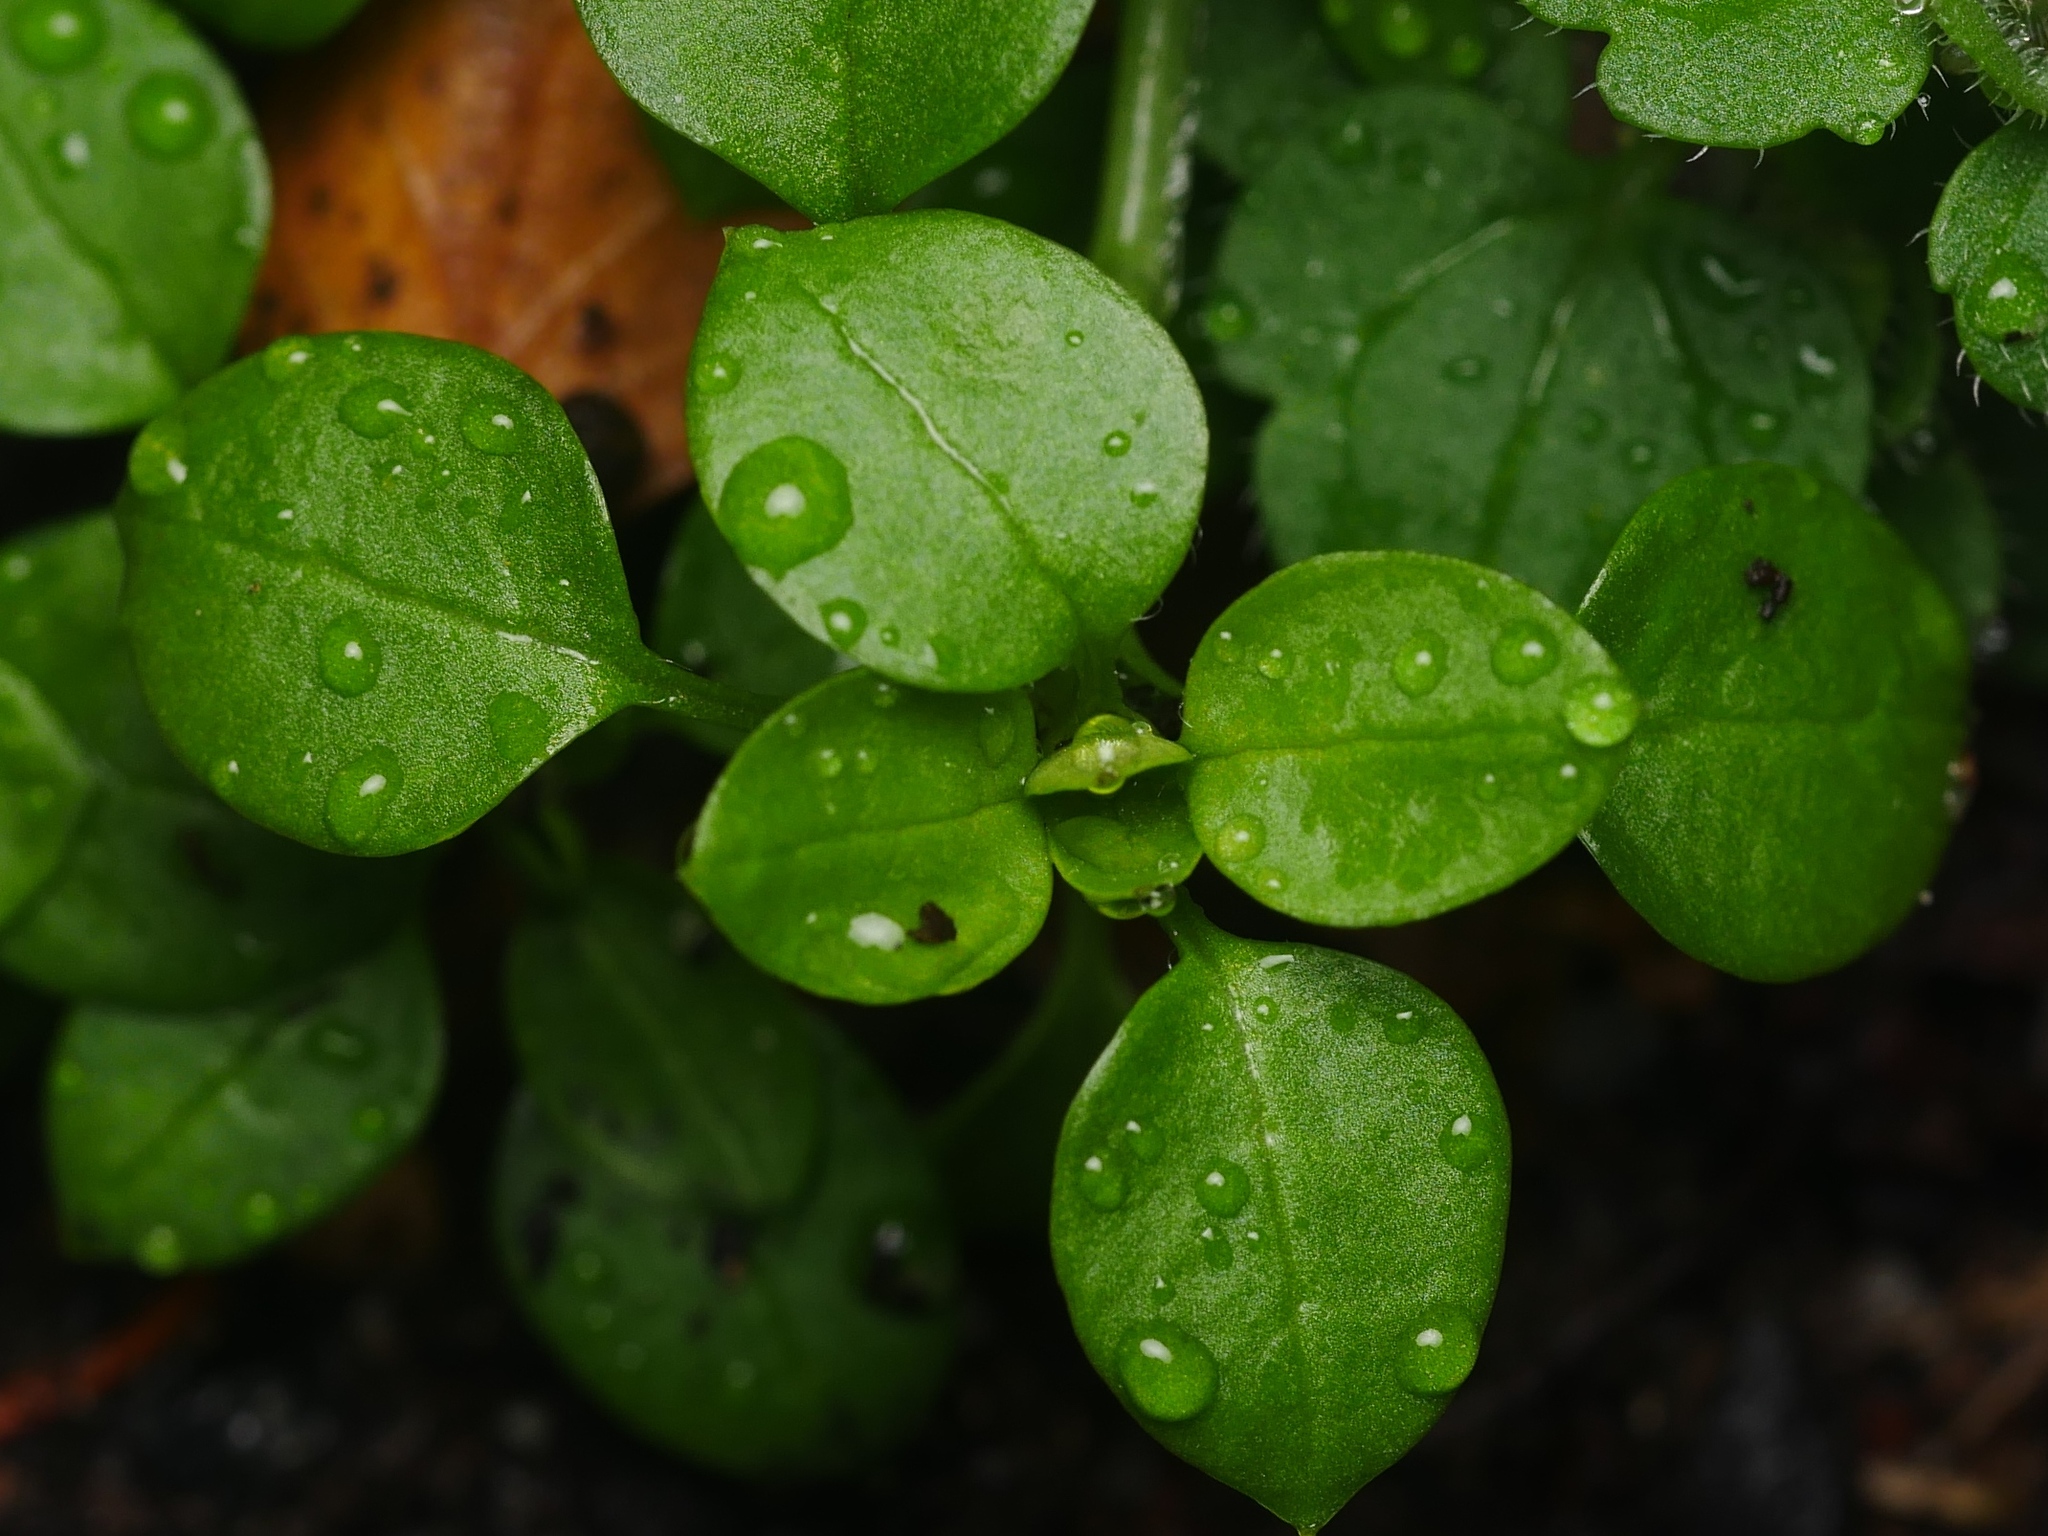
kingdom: Plantae
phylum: Tracheophyta
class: Magnoliopsida
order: Caryophyllales
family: Caryophyllaceae
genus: Stellaria
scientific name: Stellaria media
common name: Common chickweed
